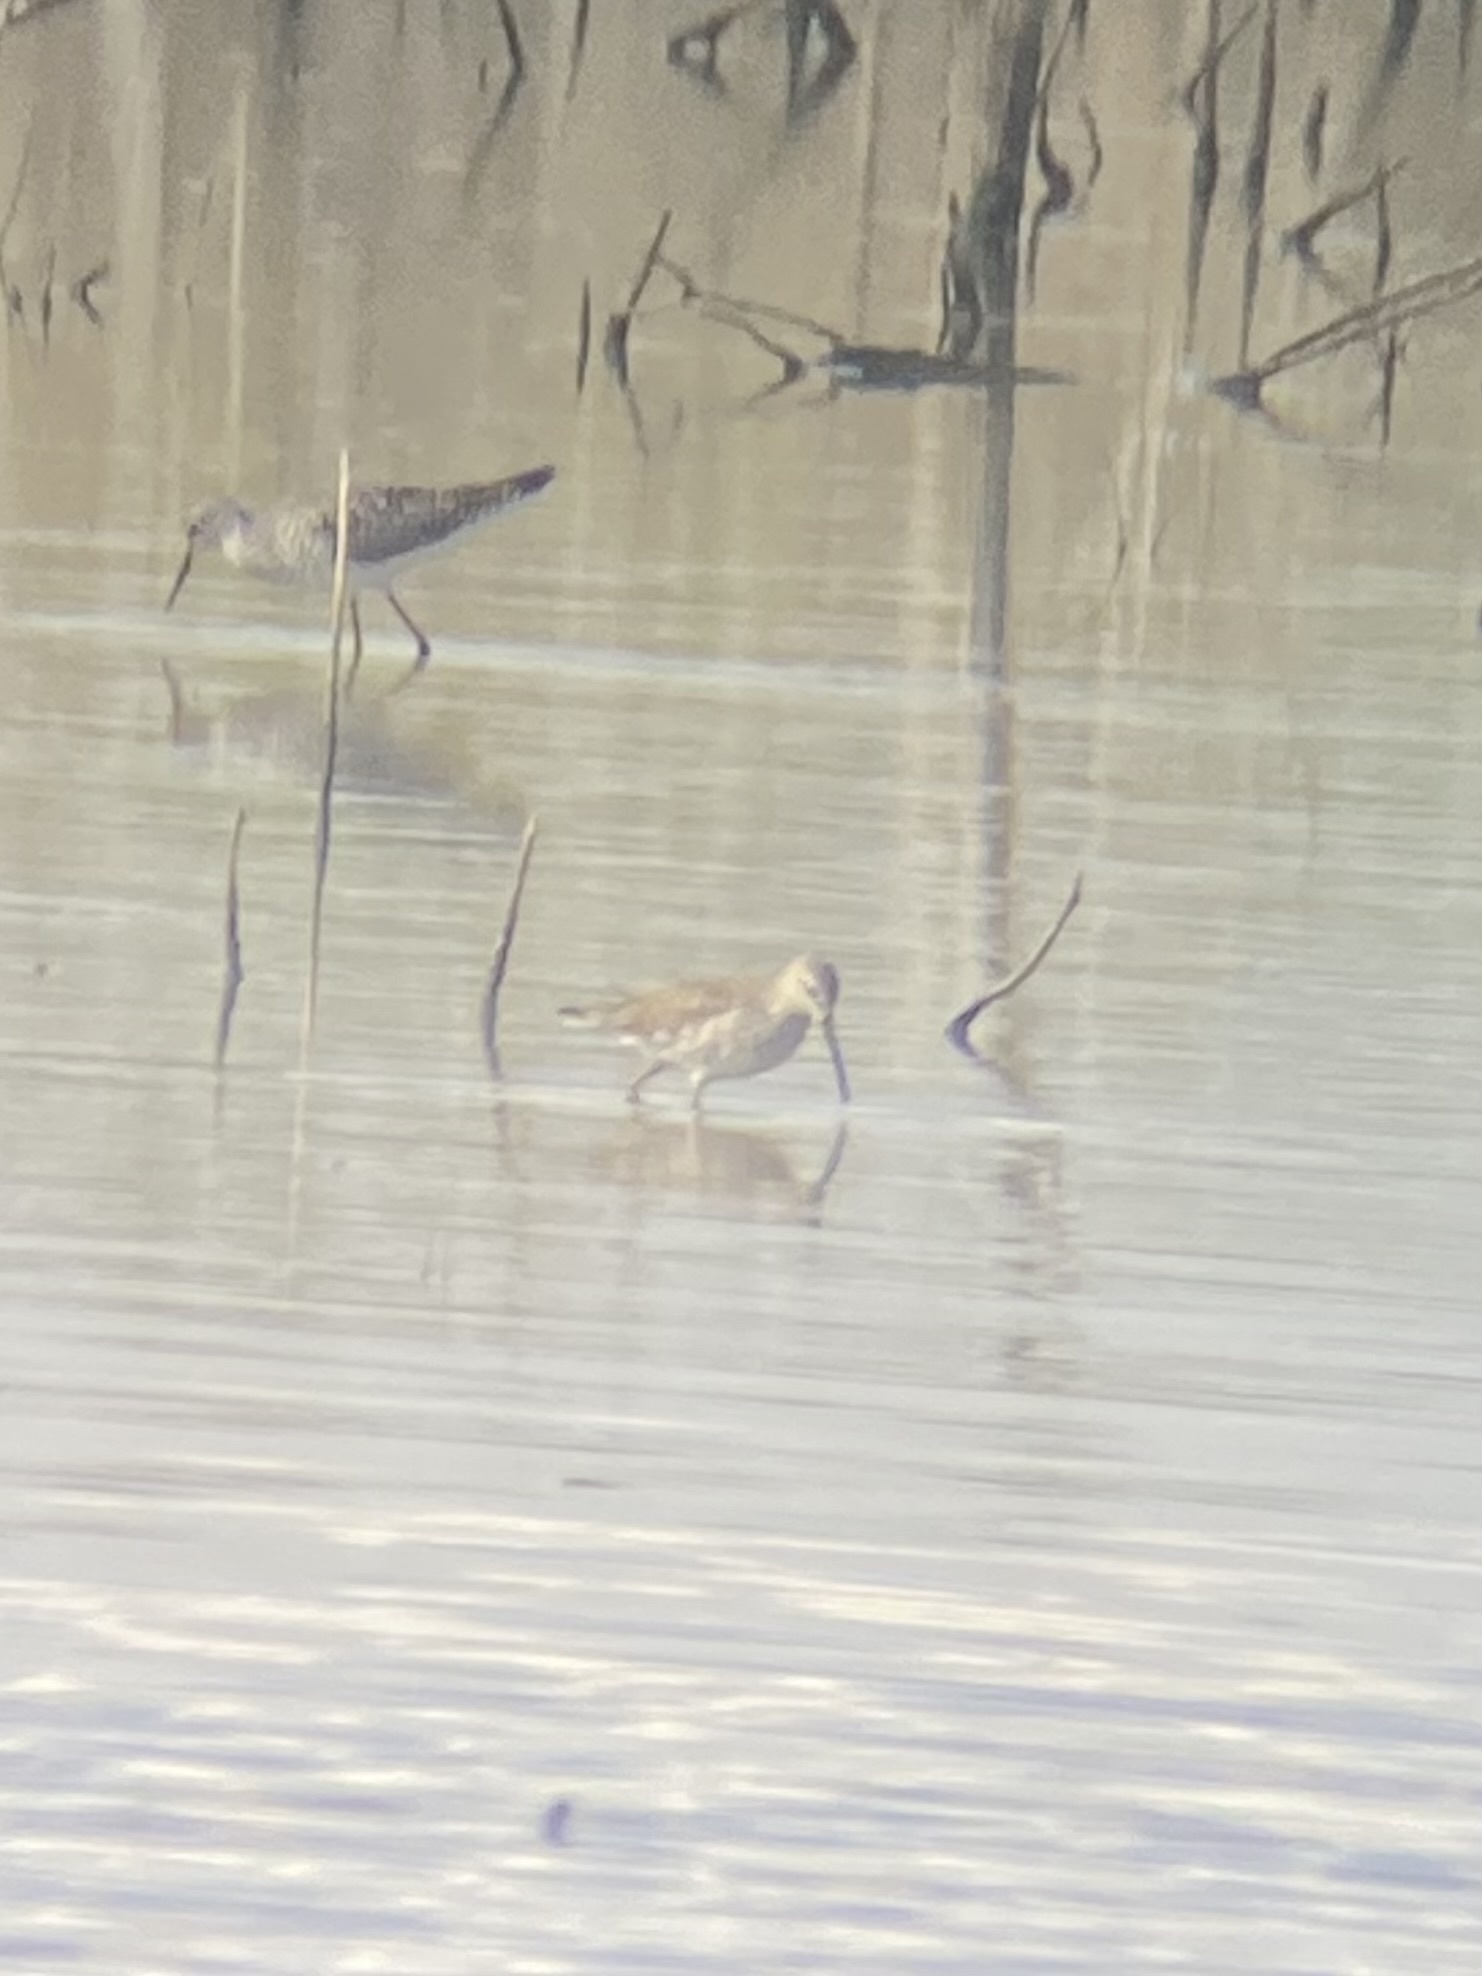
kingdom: Animalia
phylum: Chordata
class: Aves
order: Charadriiformes
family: Scolopacidae
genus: Calidris
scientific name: Calidris himantopus
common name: Stilt sandpiper
